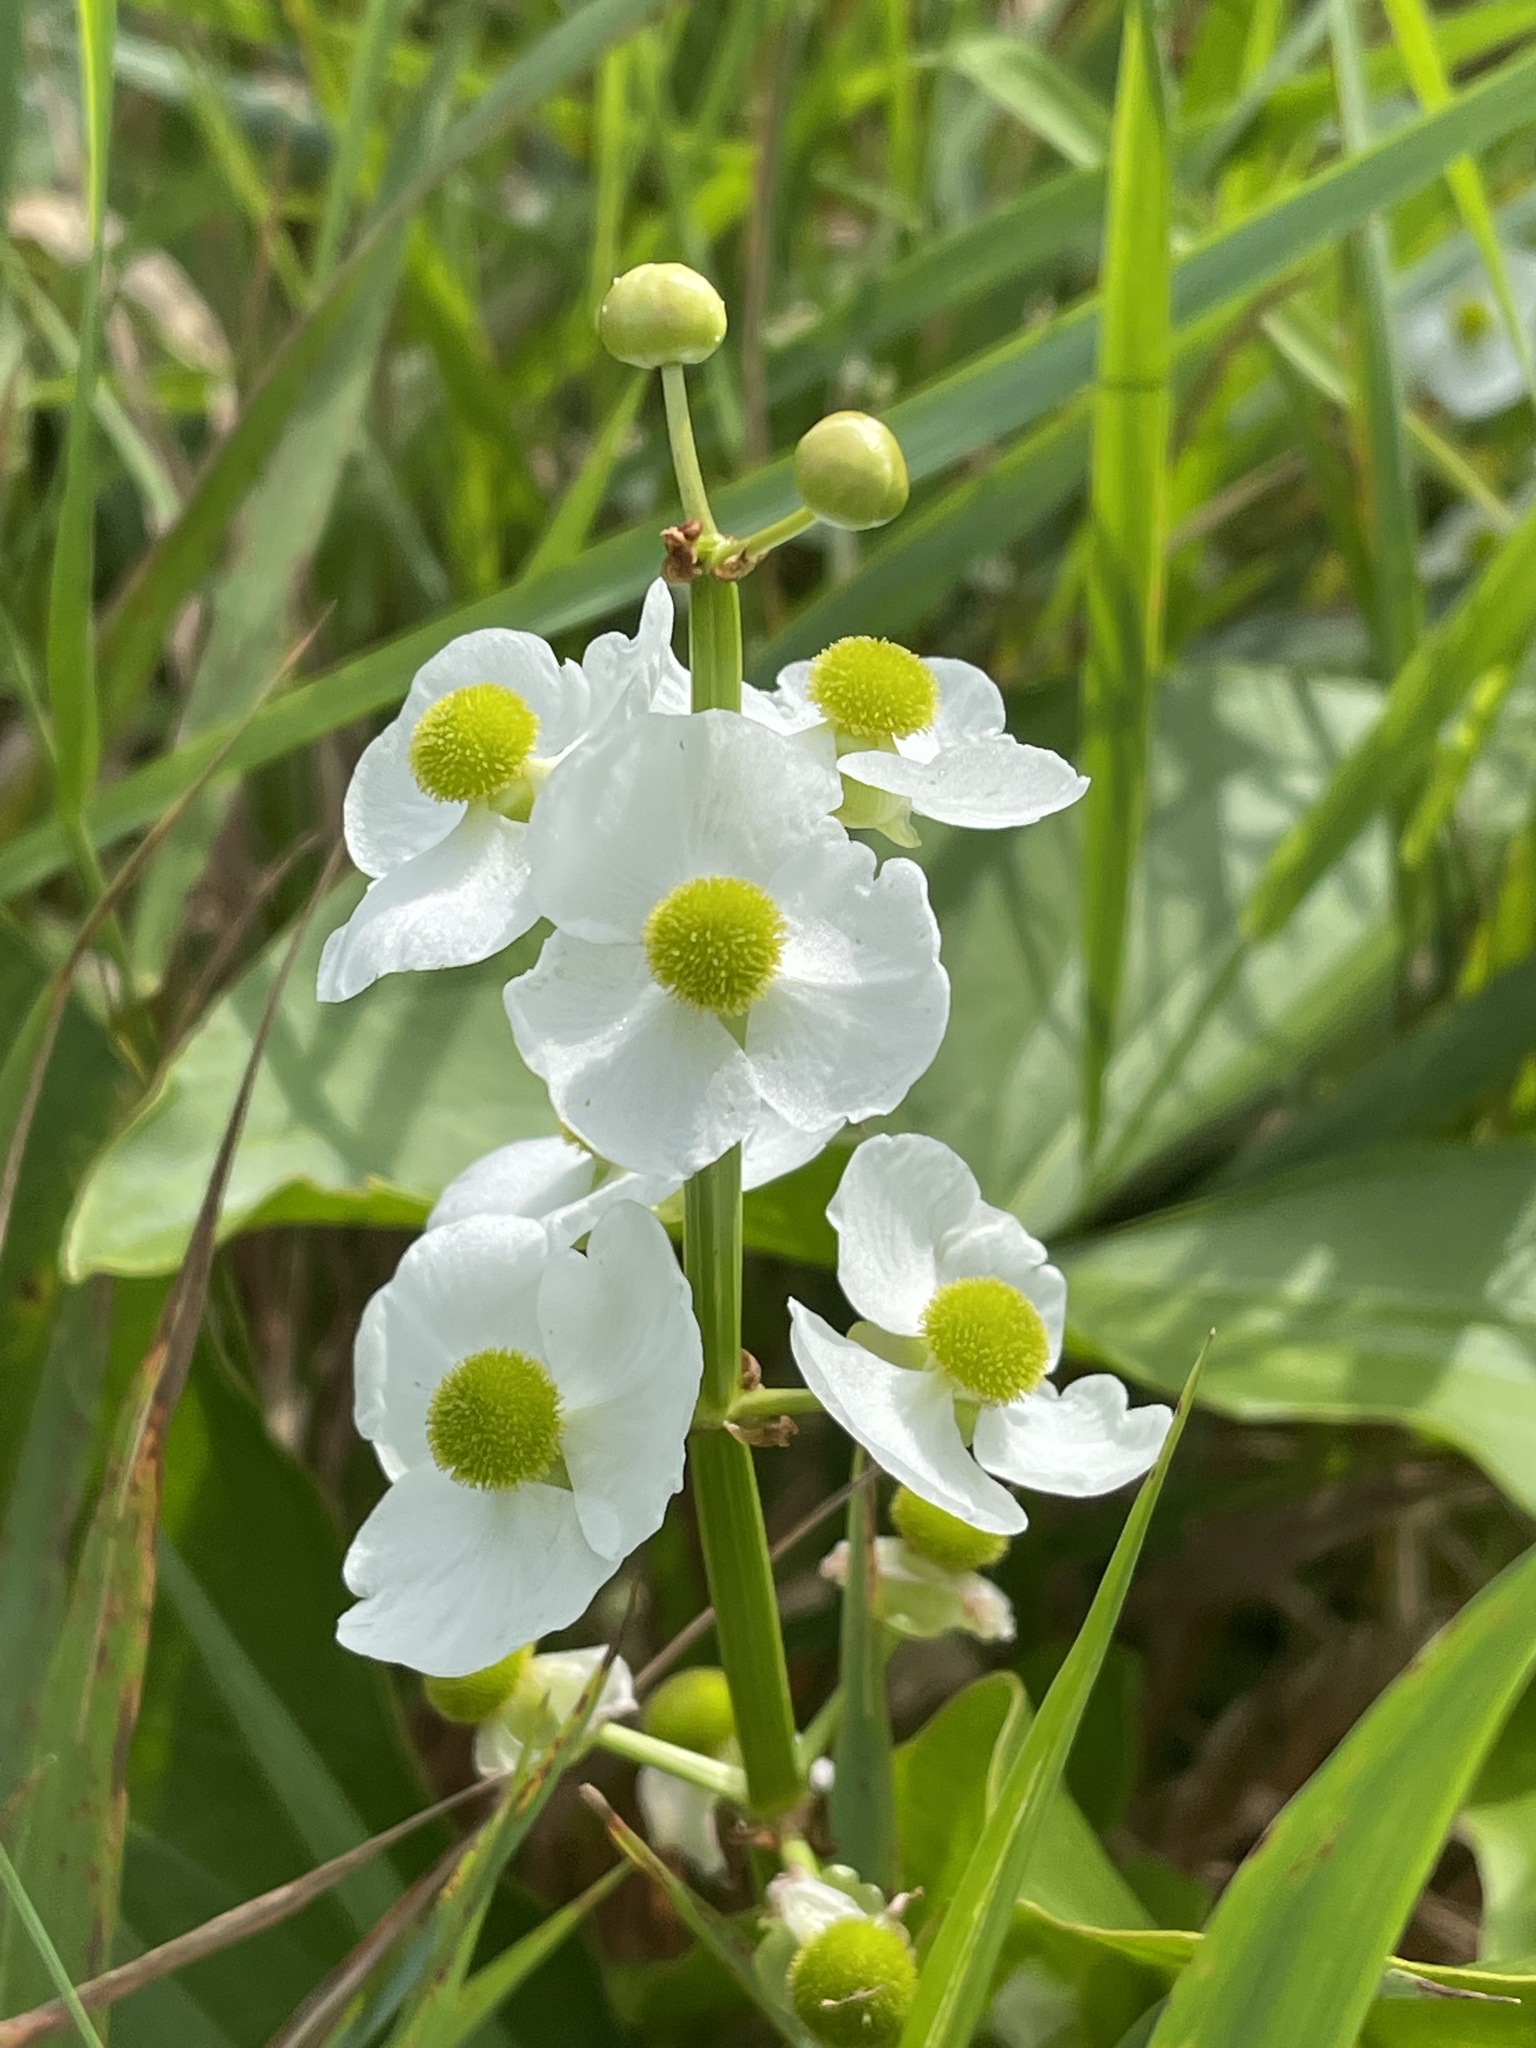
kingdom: Plantae
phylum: Tracheophyta
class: Liliopsida
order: Alismatales
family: Alismataceae
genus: Sagittaria
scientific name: Sagittaria latifolia
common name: Duck-potato
